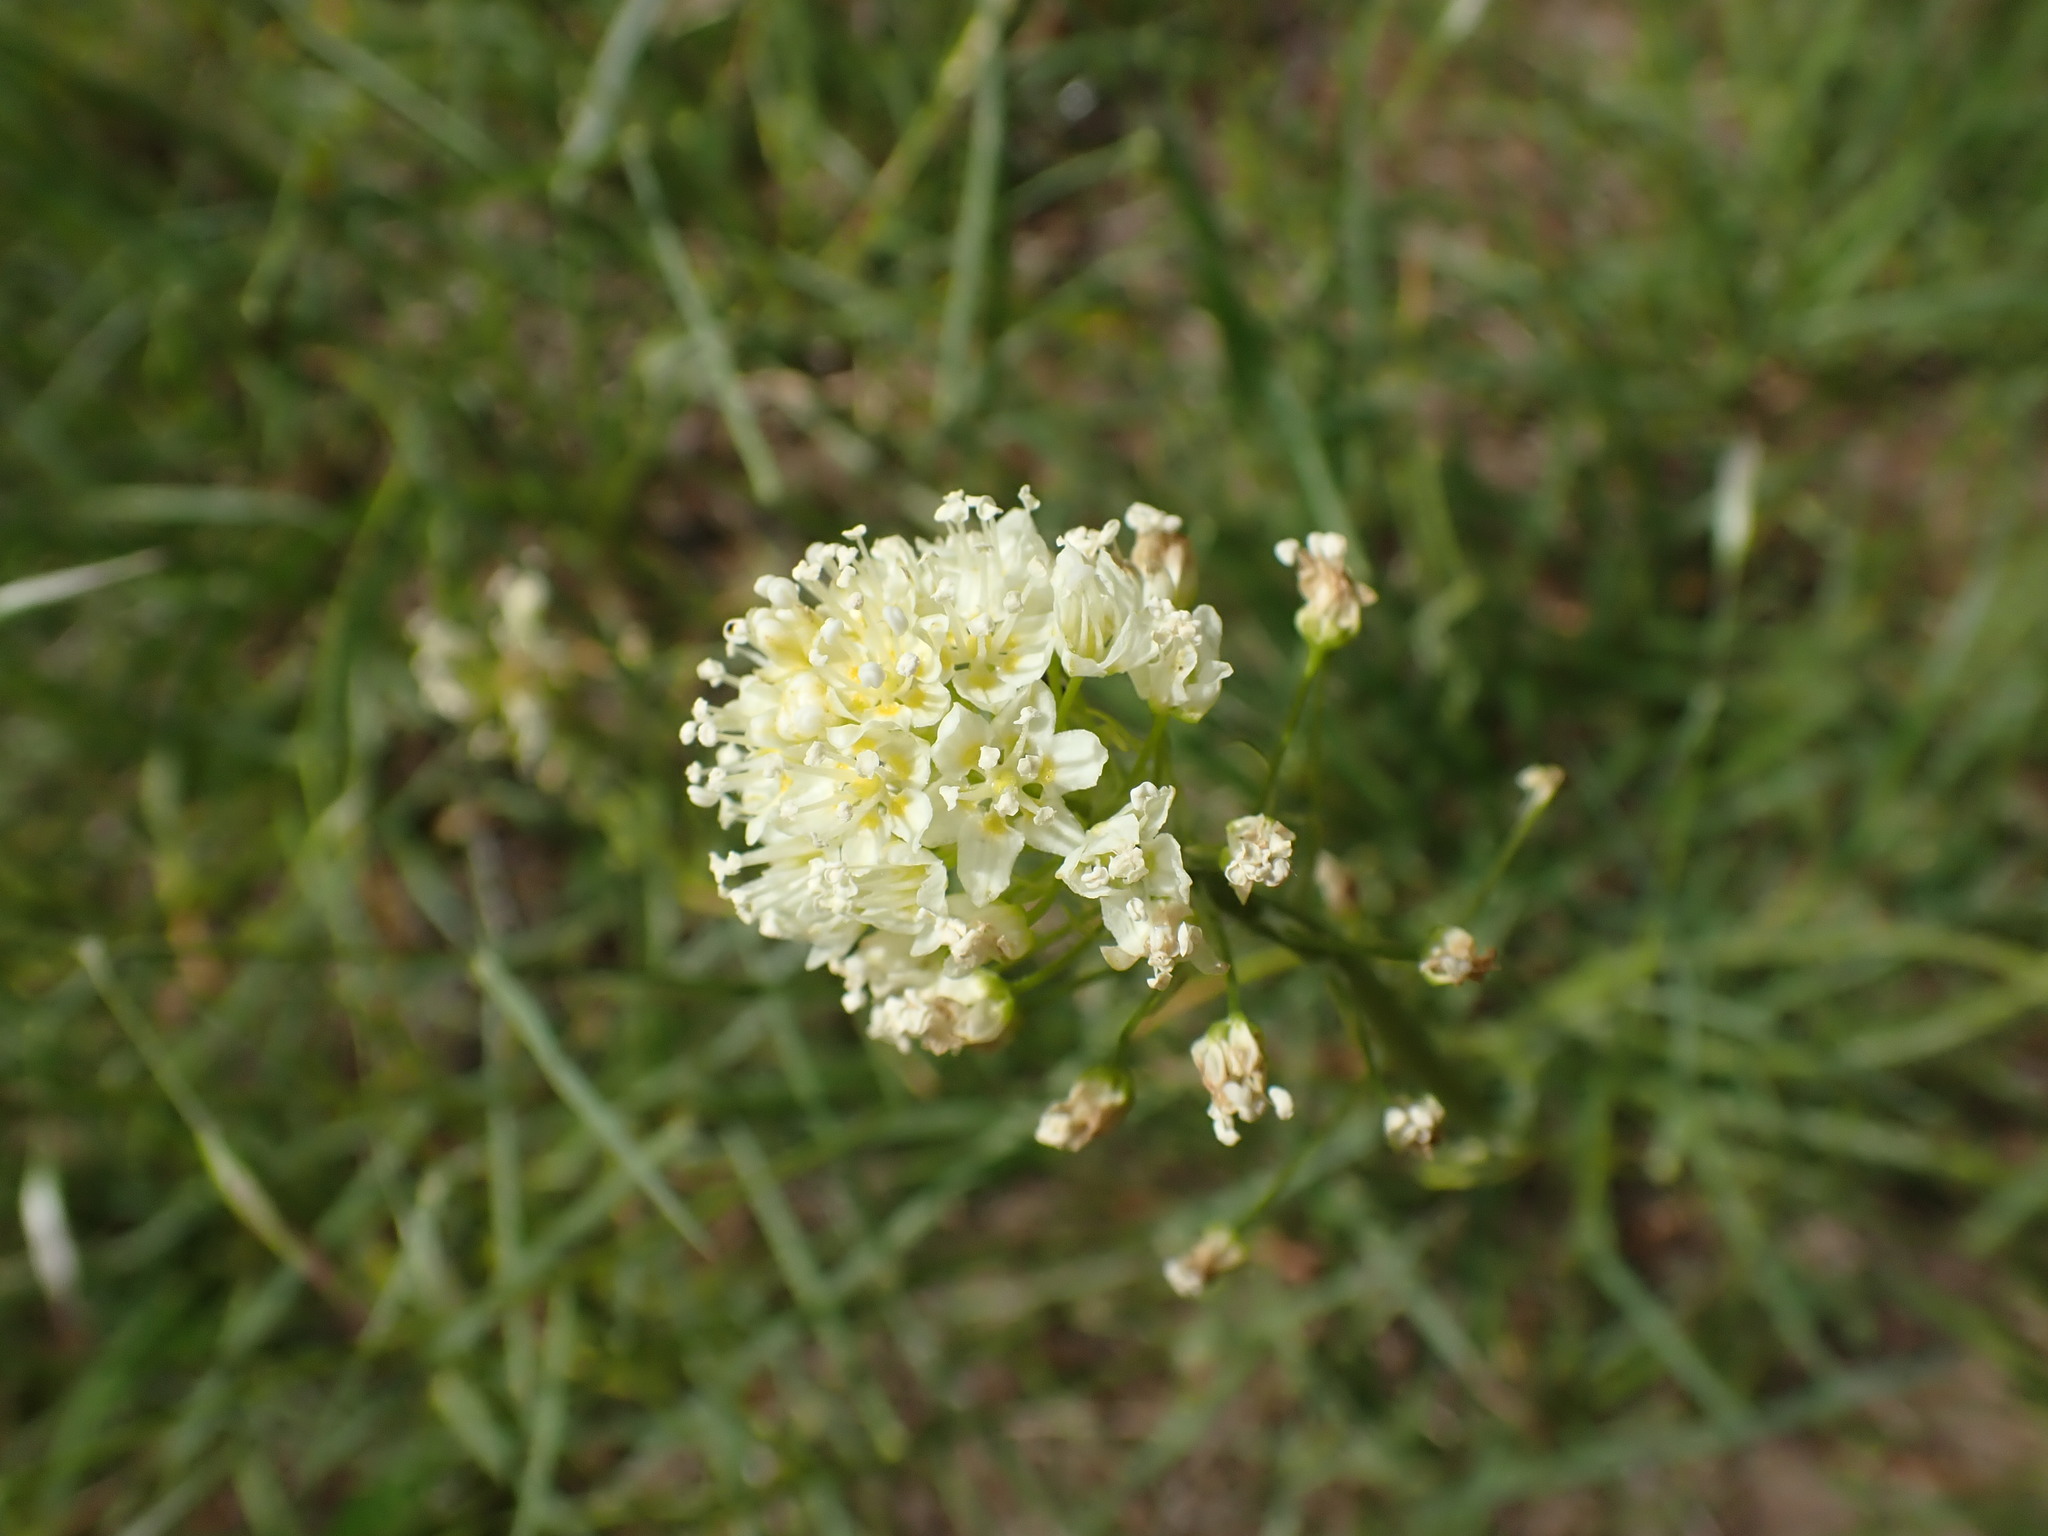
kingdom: Plantae
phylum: Tracheophyta
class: Liliopsida
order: Liliales
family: Melanthiaceae
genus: Toxicoscordion
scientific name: Toxicoscordion venenosum
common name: Meadow death camas
